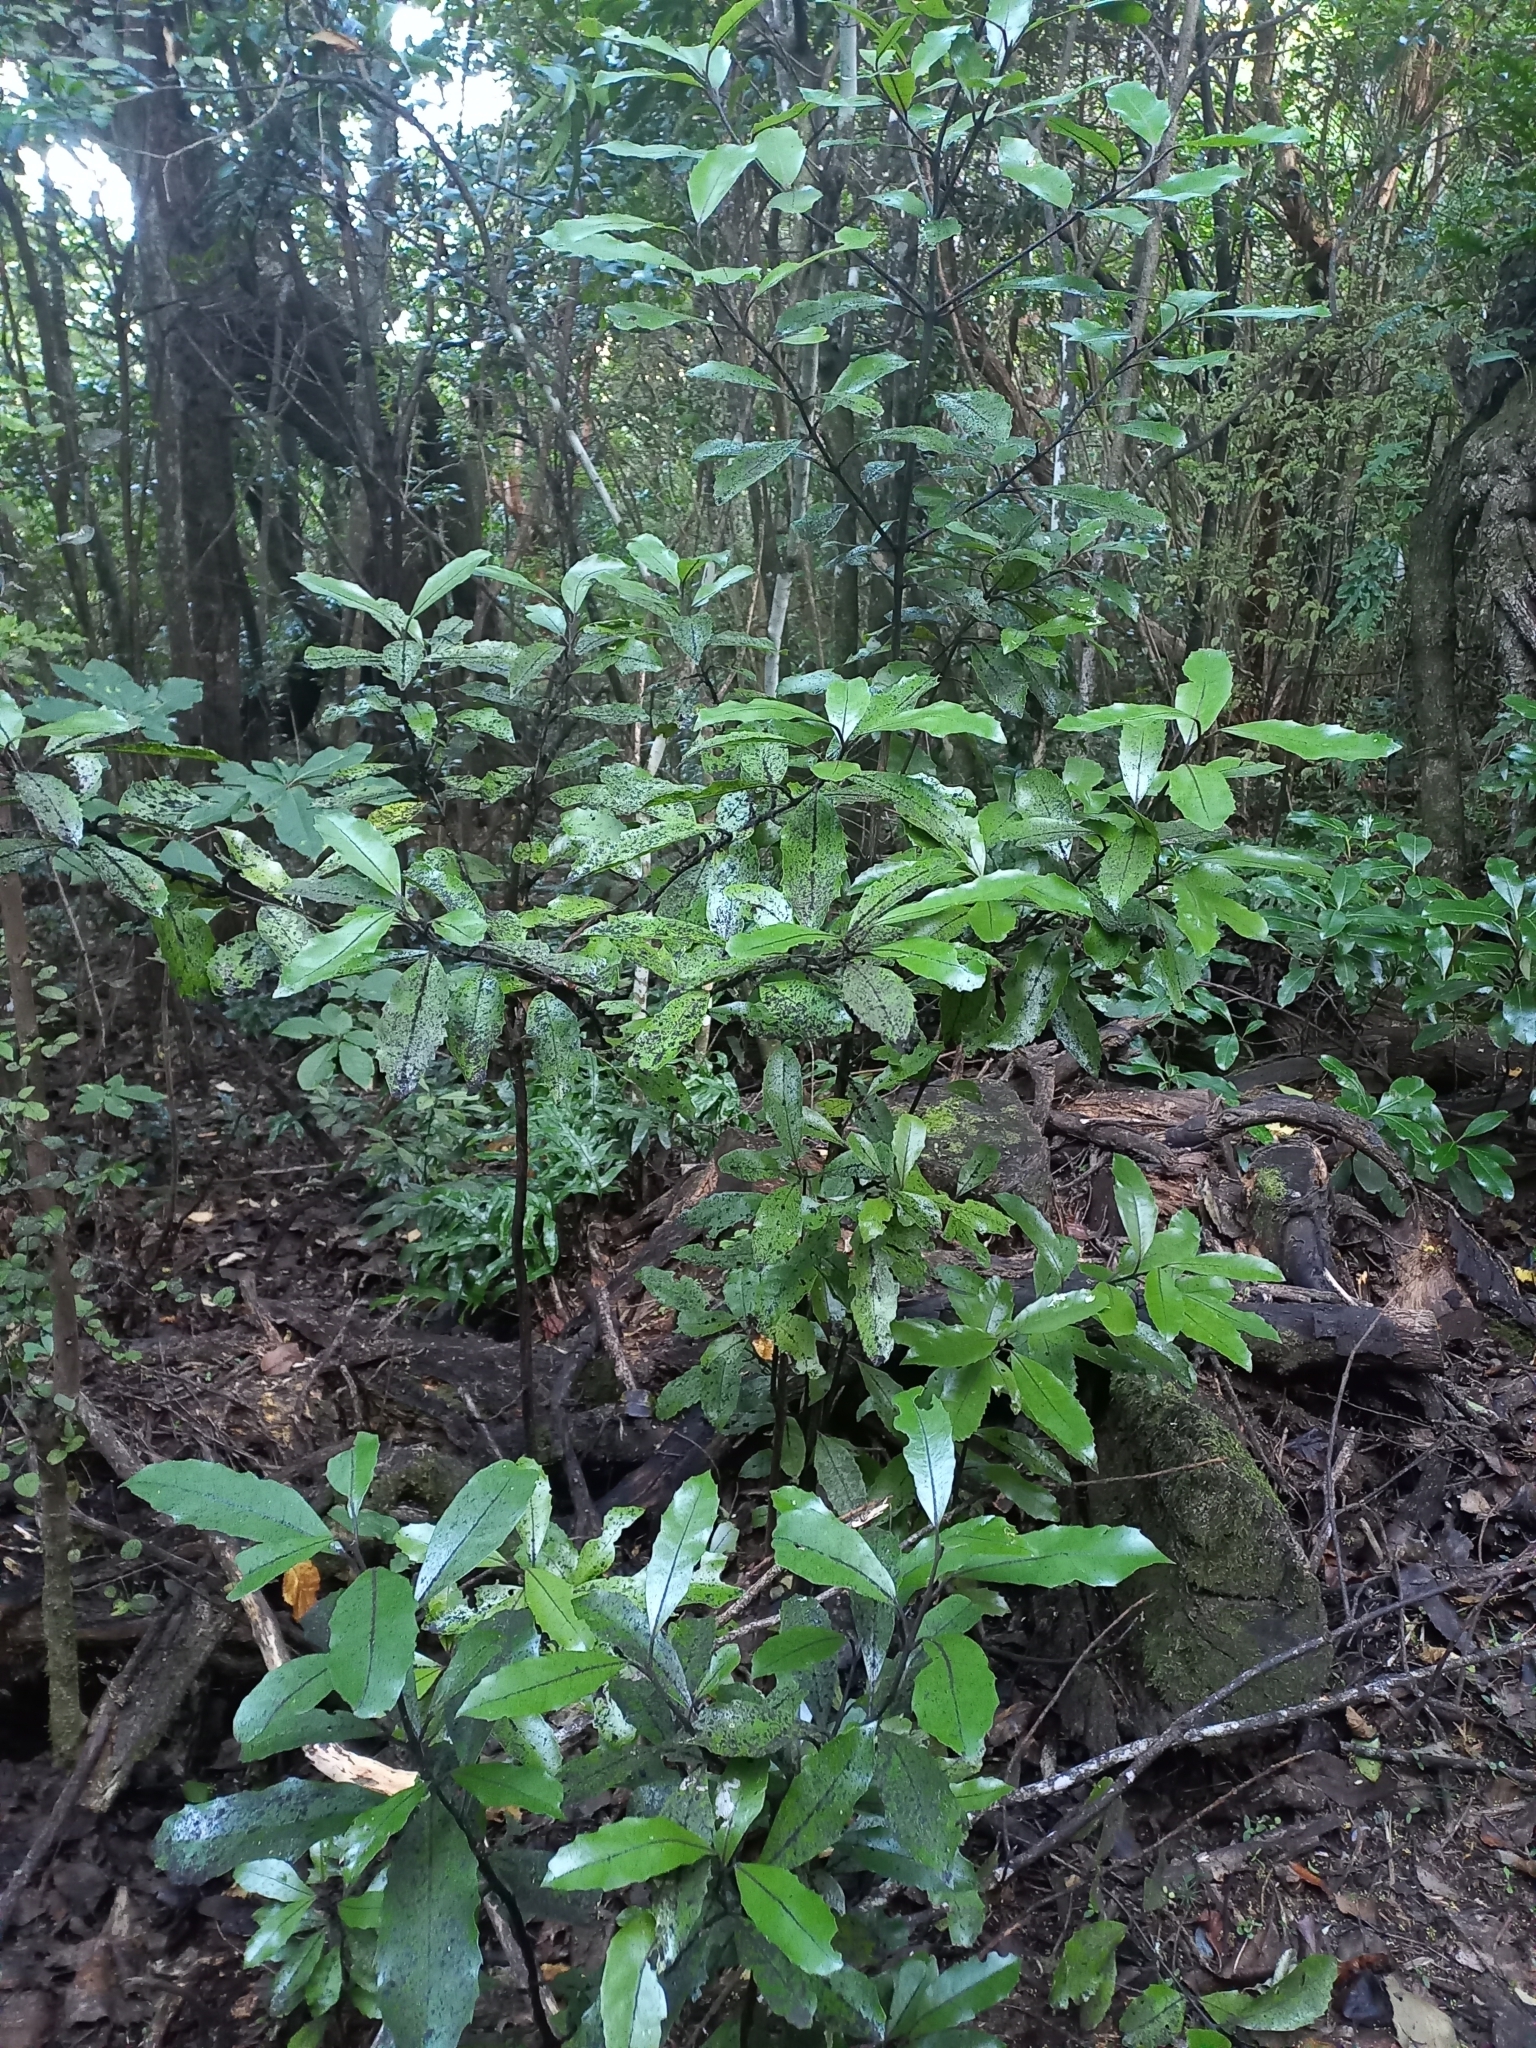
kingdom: Plantae
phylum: Tracheophyta
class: Magnoliopsida
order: Laurales
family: Monimiaceae
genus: Hedycarya
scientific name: Hedycarya arborea
